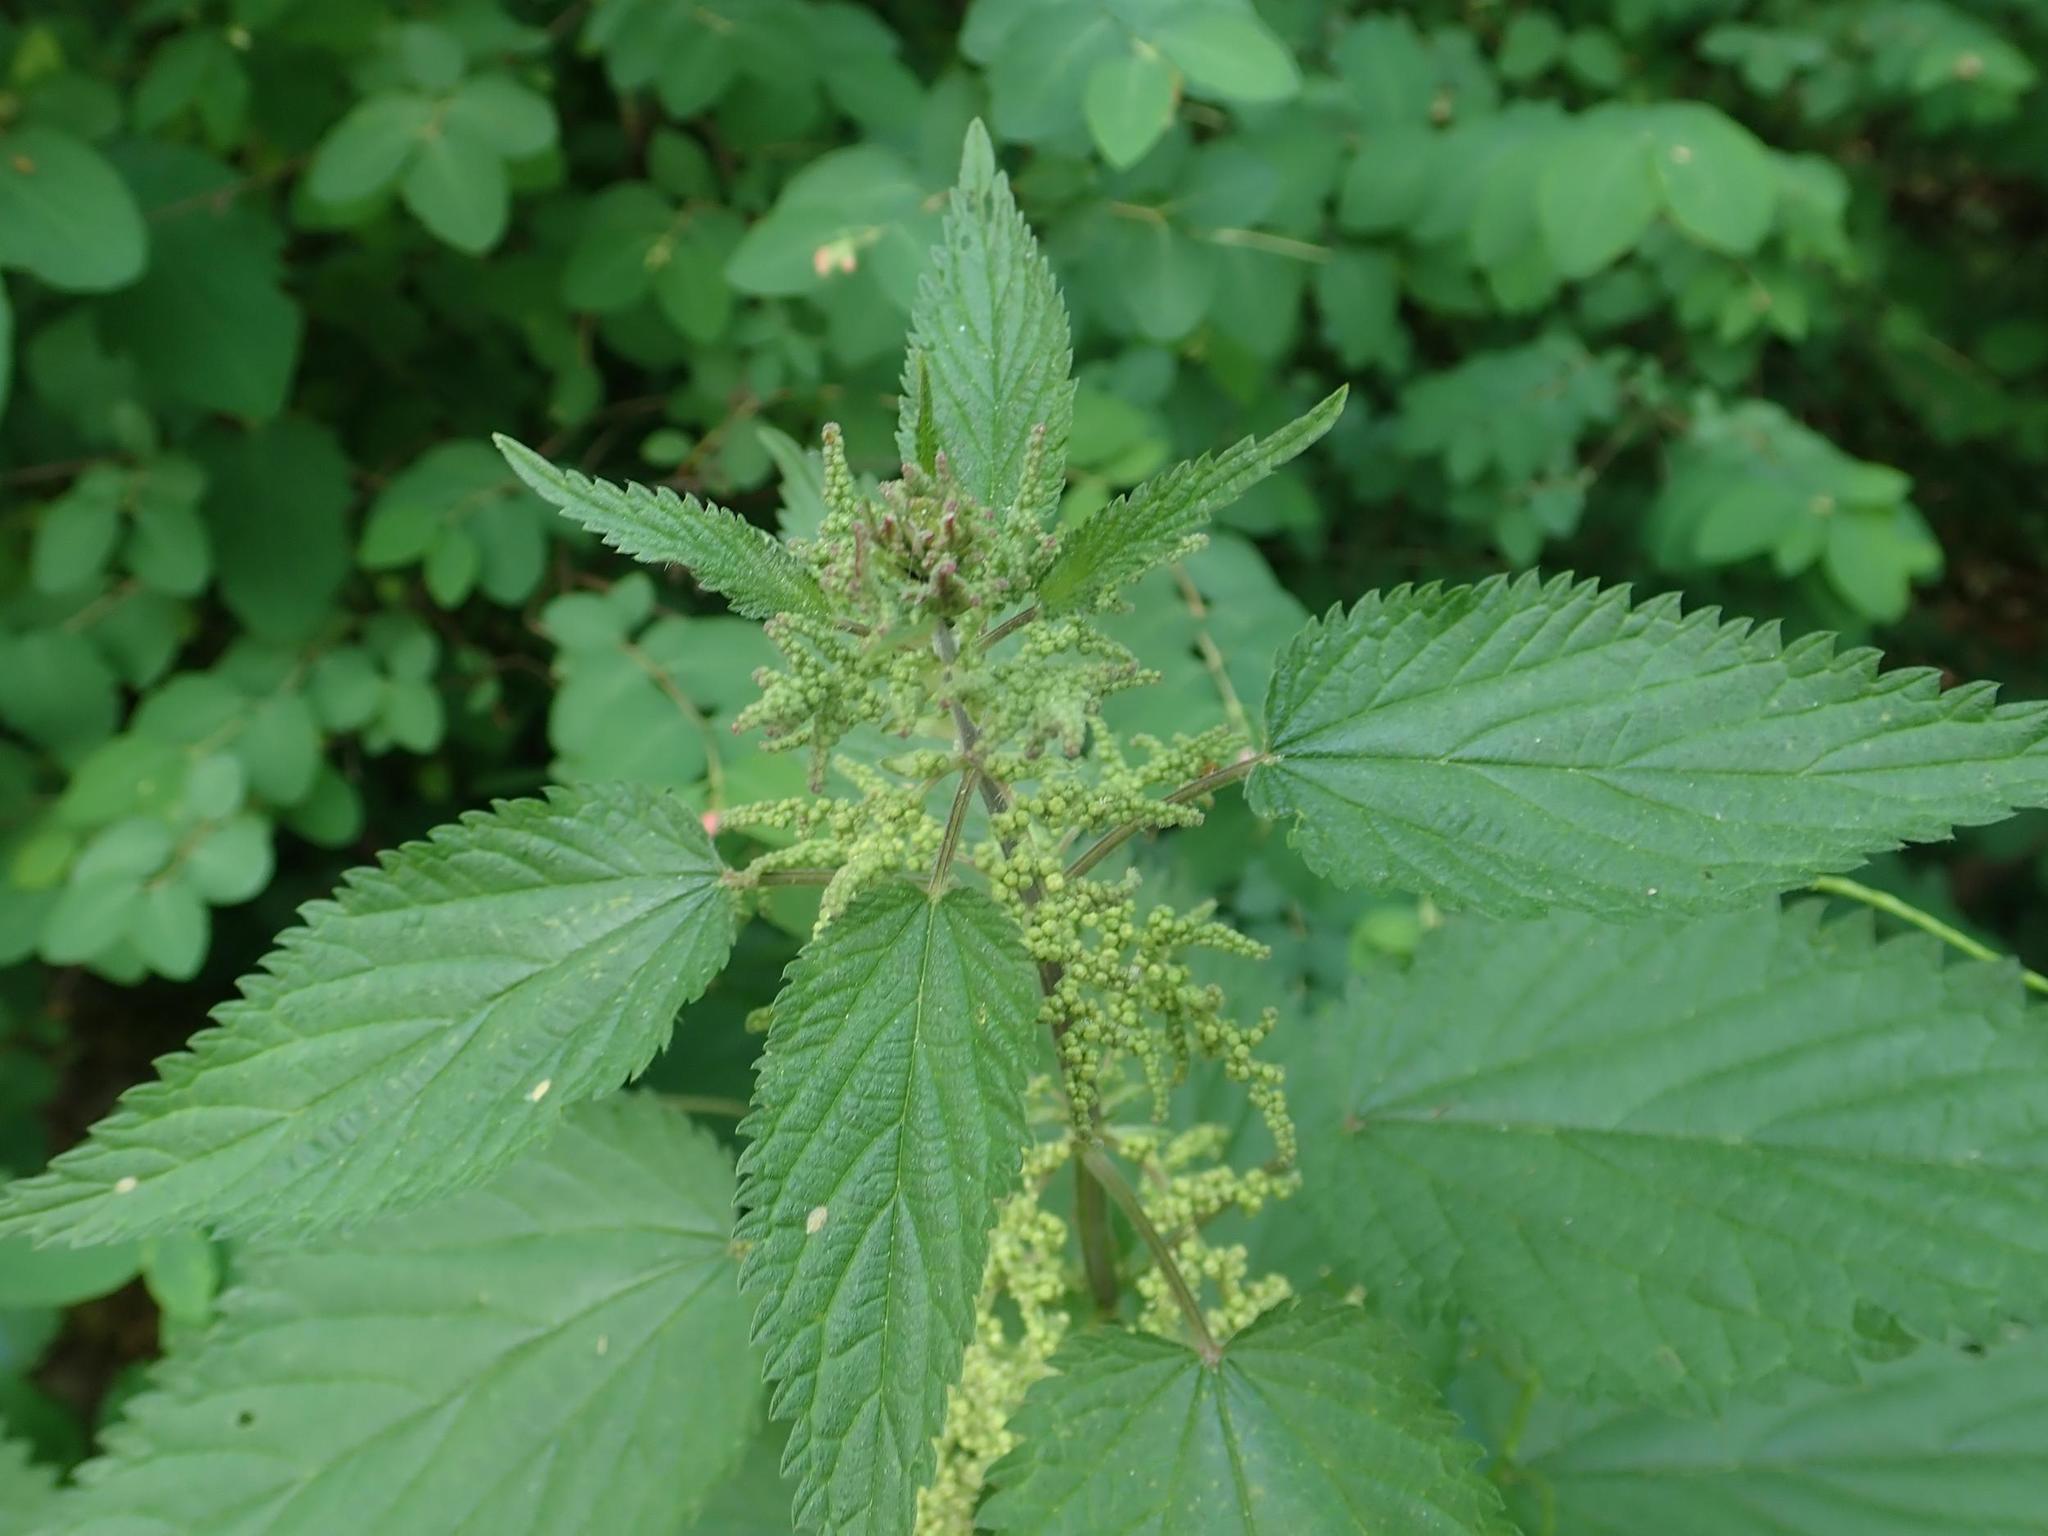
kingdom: Plantae
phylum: Tracheophyta
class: Magnoliopsida
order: Rosales
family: Urticaceae
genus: Urtica
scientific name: Urtica dioica
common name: Common nettle
